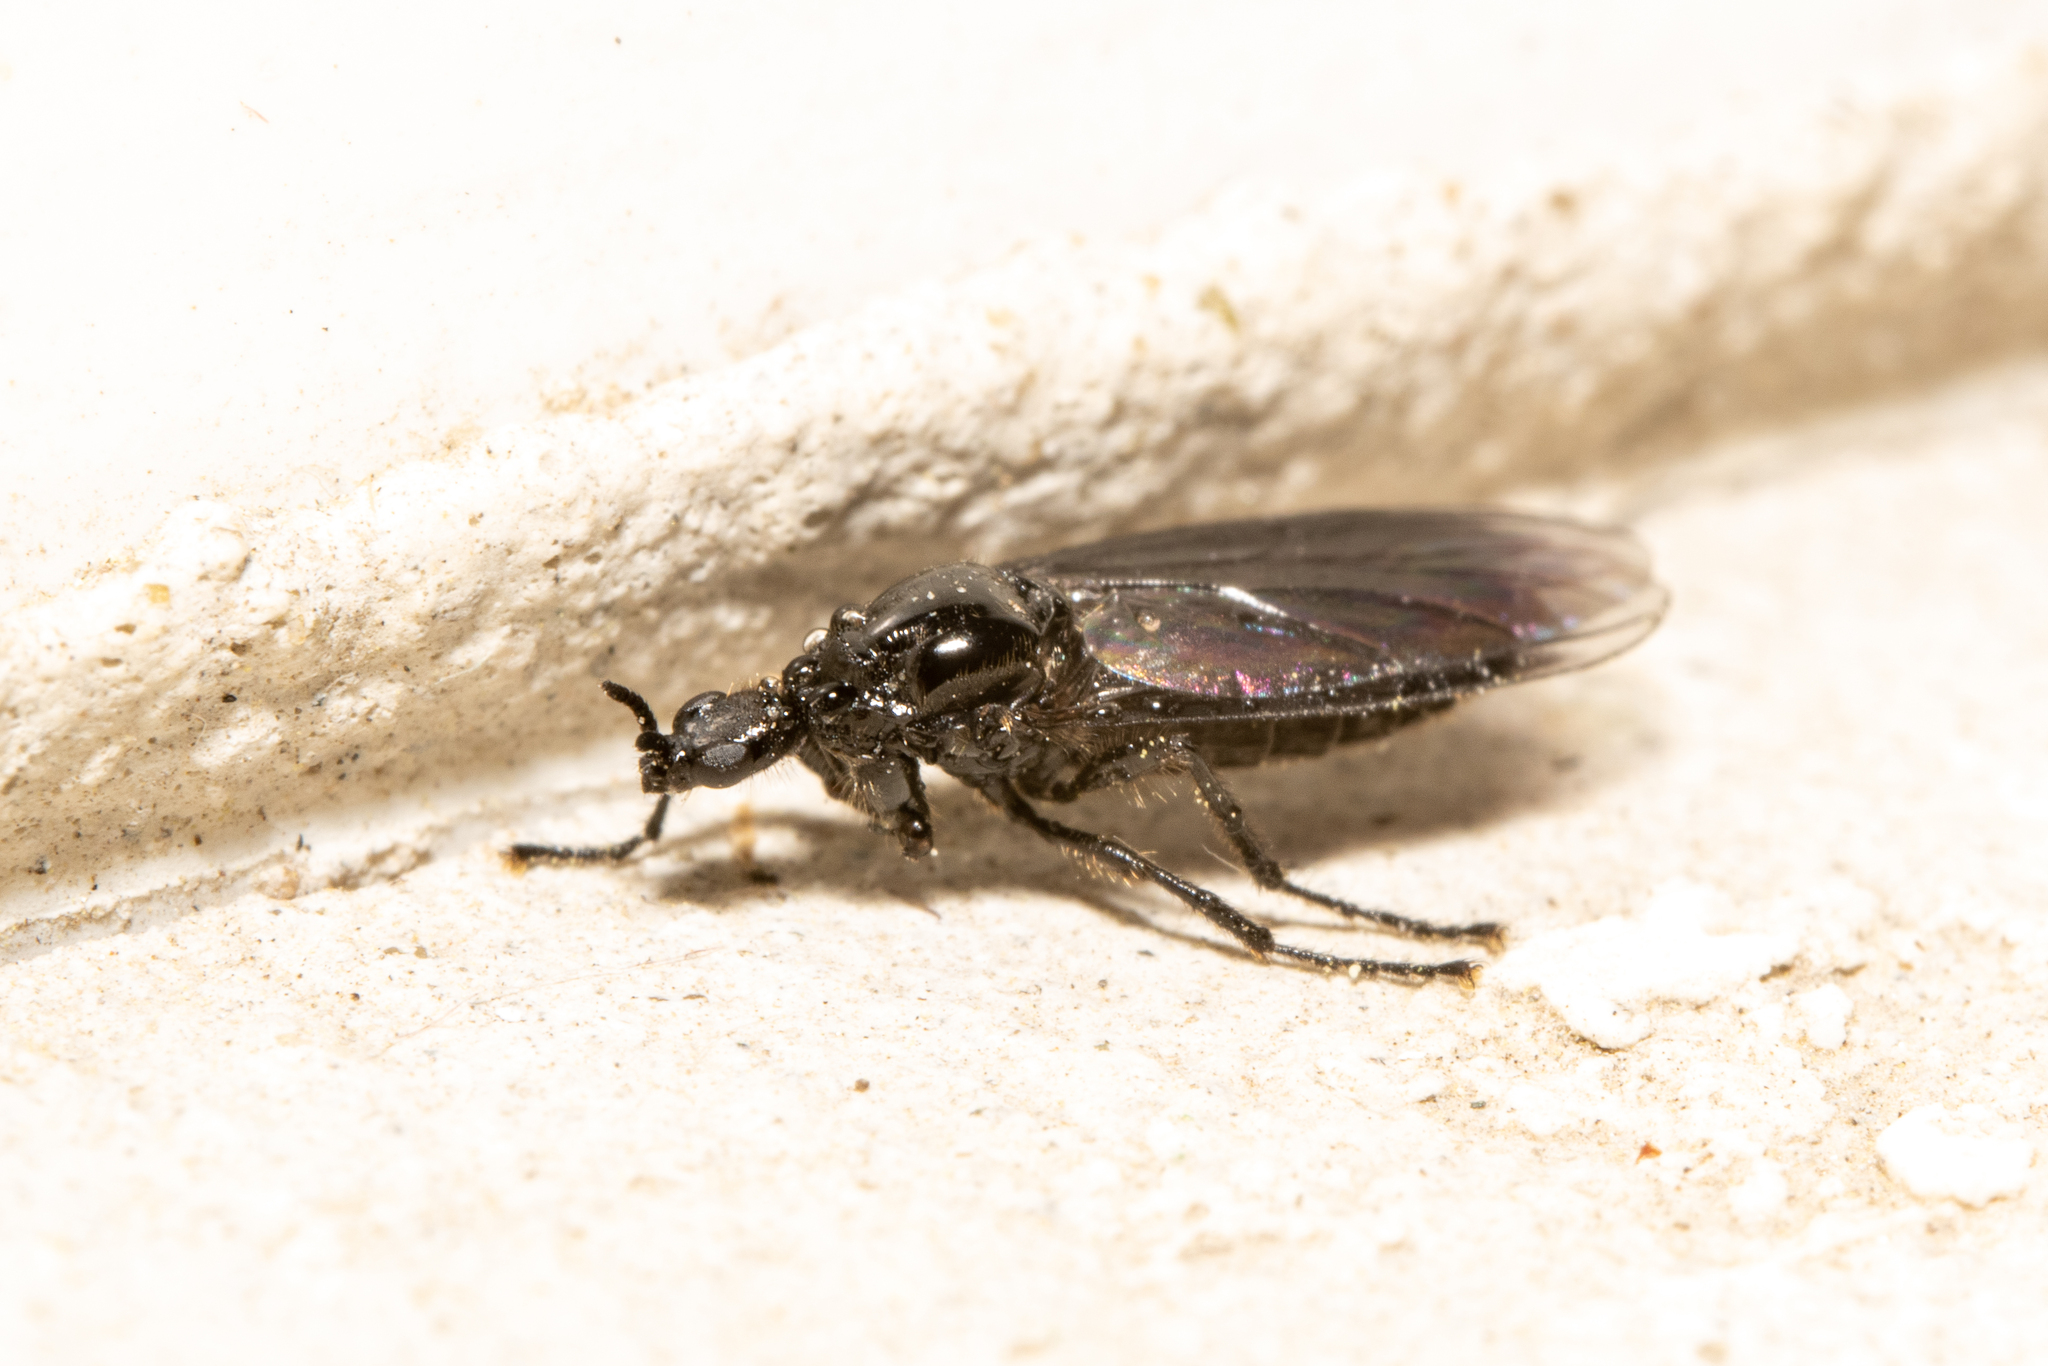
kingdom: Animalia
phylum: Arthropoda
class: Insecta
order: Diptera
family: Bibionidae
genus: Dilophus
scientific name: Dilophus febrilis
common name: Fever fly
